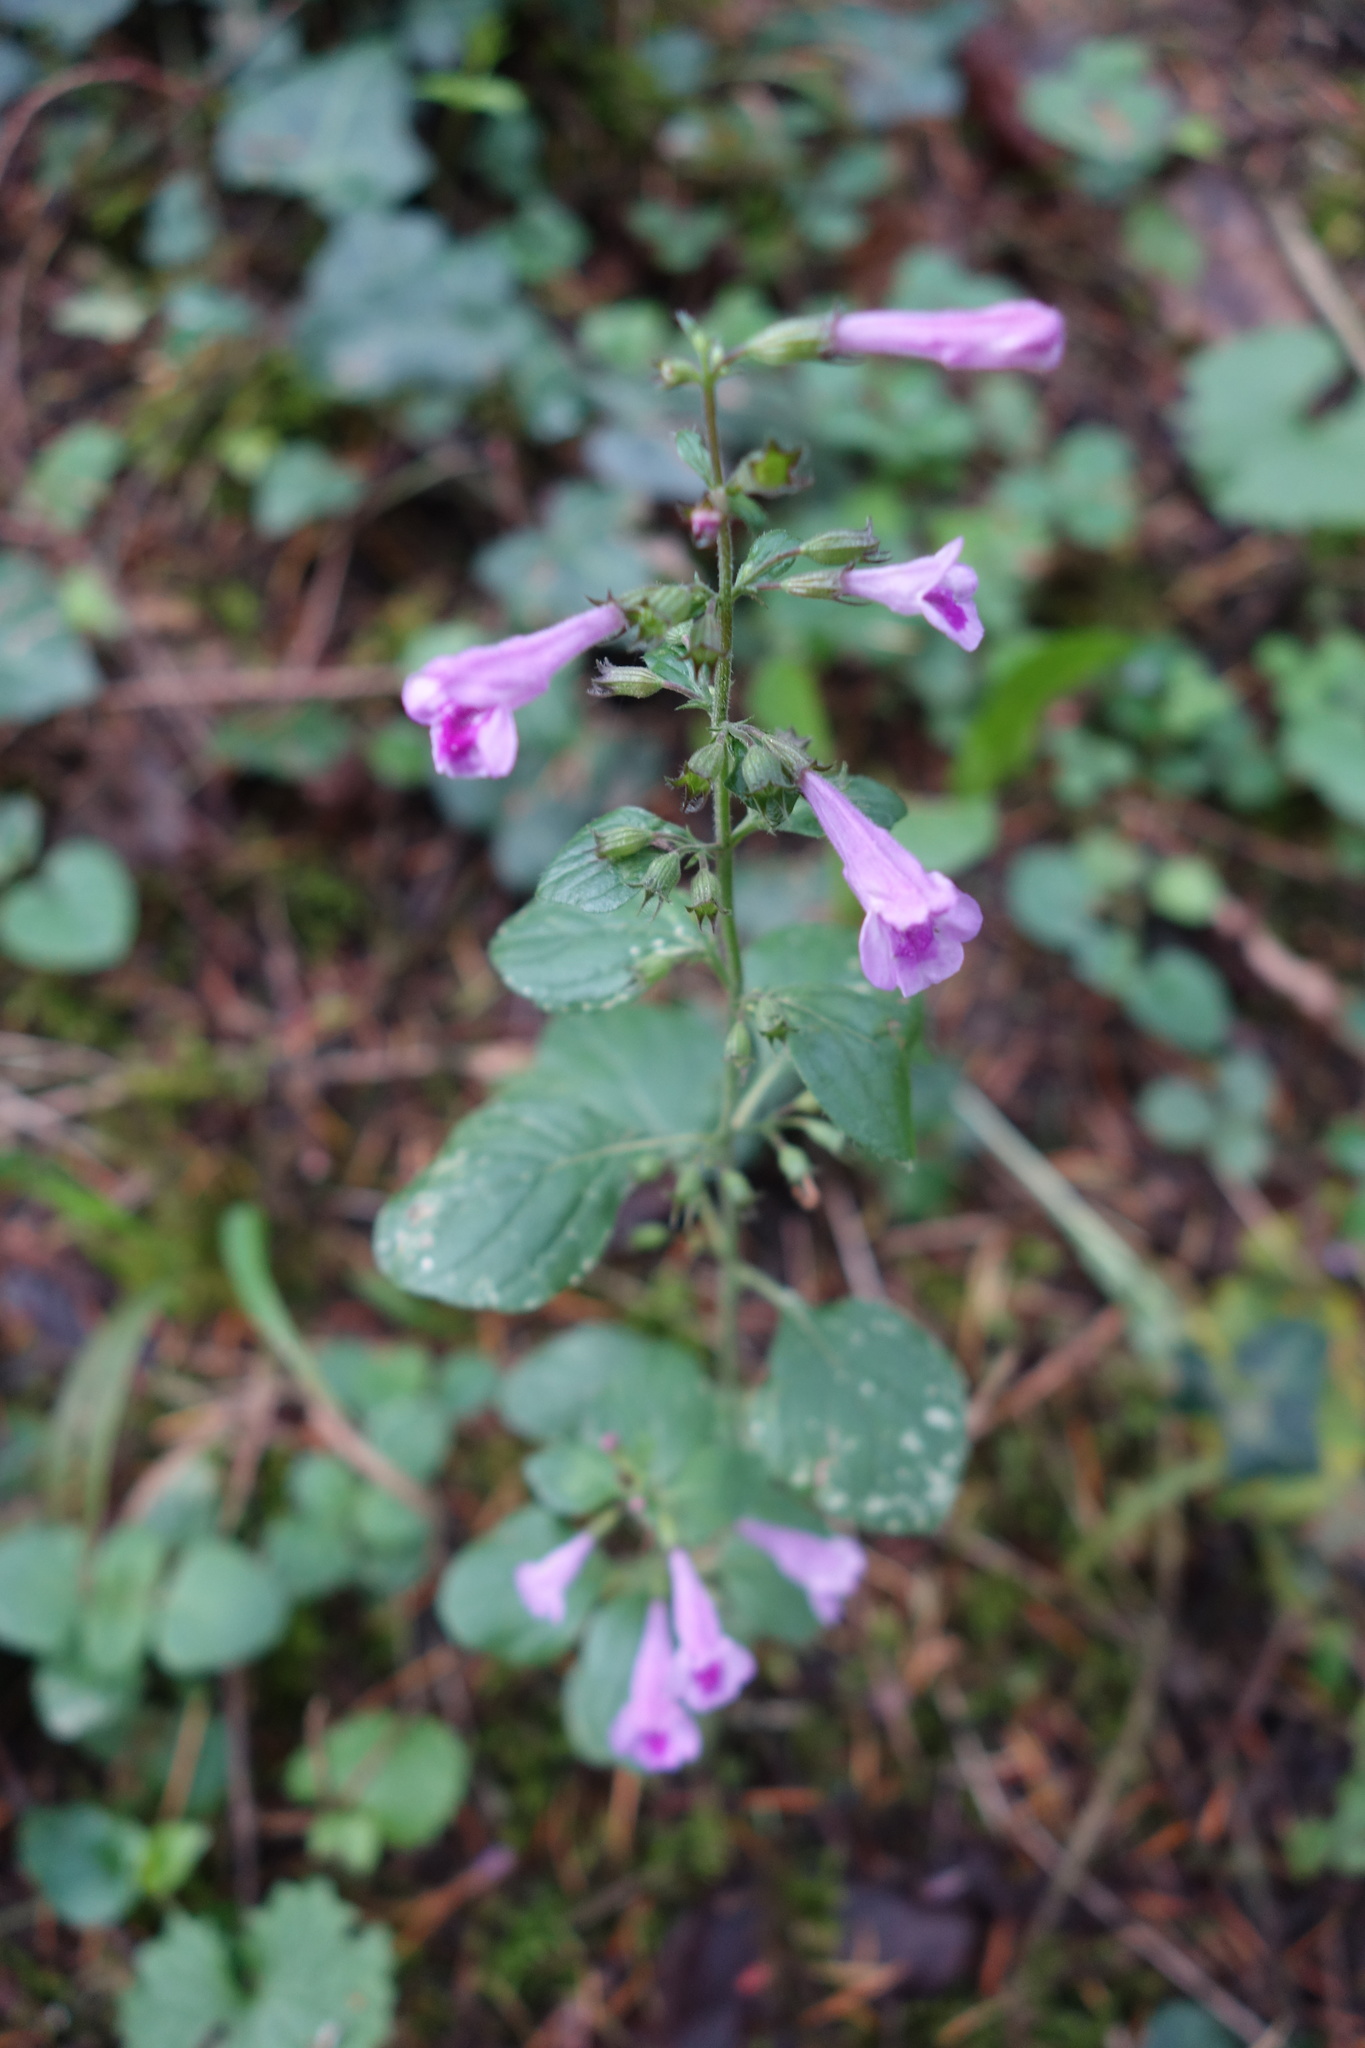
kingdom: Plantae
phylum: Tracheophyta
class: Magnoliopsida
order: Lamiales
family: Lamiaceae
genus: Clinopodium
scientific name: Clinopodium menthifolium
